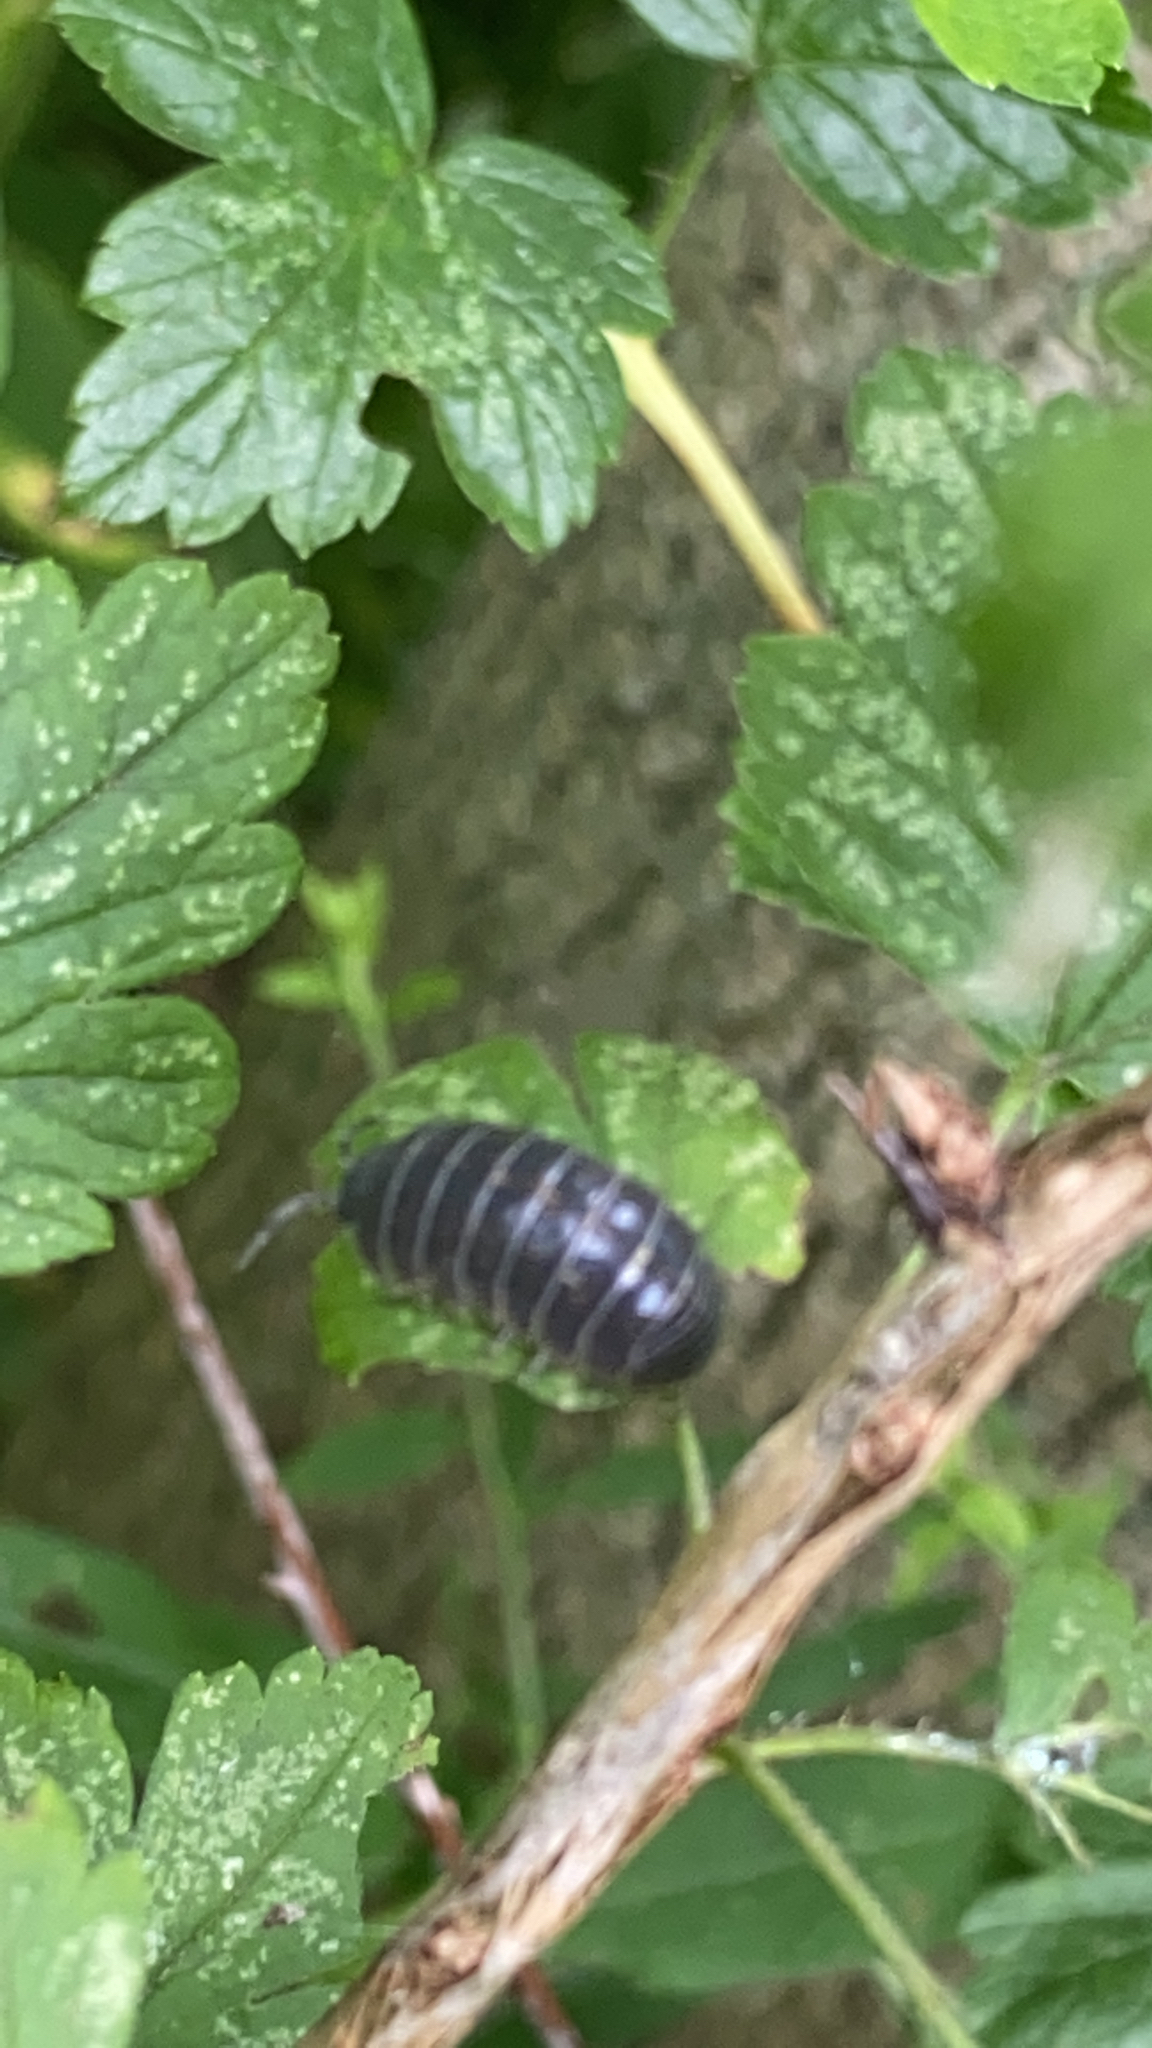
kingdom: Animalia
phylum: Arthropoda
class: Malacostraca
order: Isopoda
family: Armadillidiidae
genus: Armadillidium
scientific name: Armadillidium vulgare
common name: Common pill woodlouse
